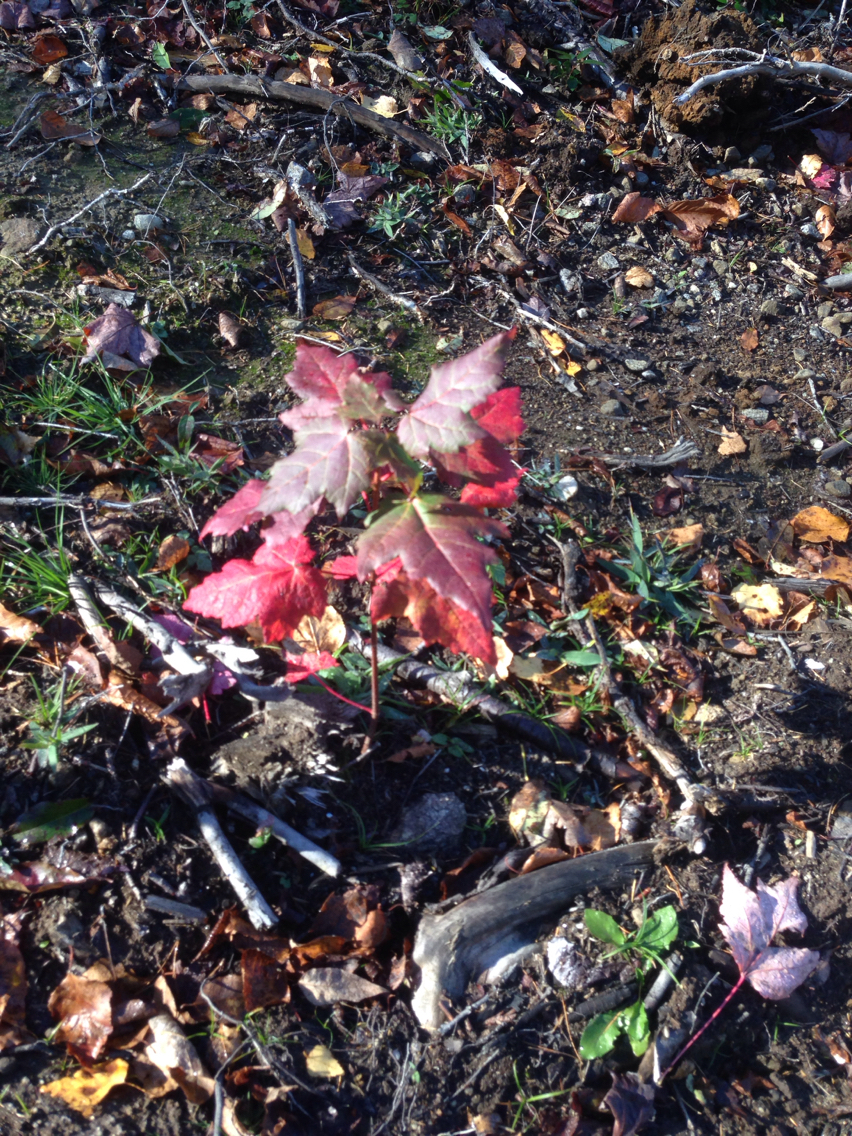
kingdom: Plantae
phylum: Tracheophyta
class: Magnoliopsida
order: Sapindales
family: Sapindaceae
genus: Acer
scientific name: Acer rubrum
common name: Red maple
